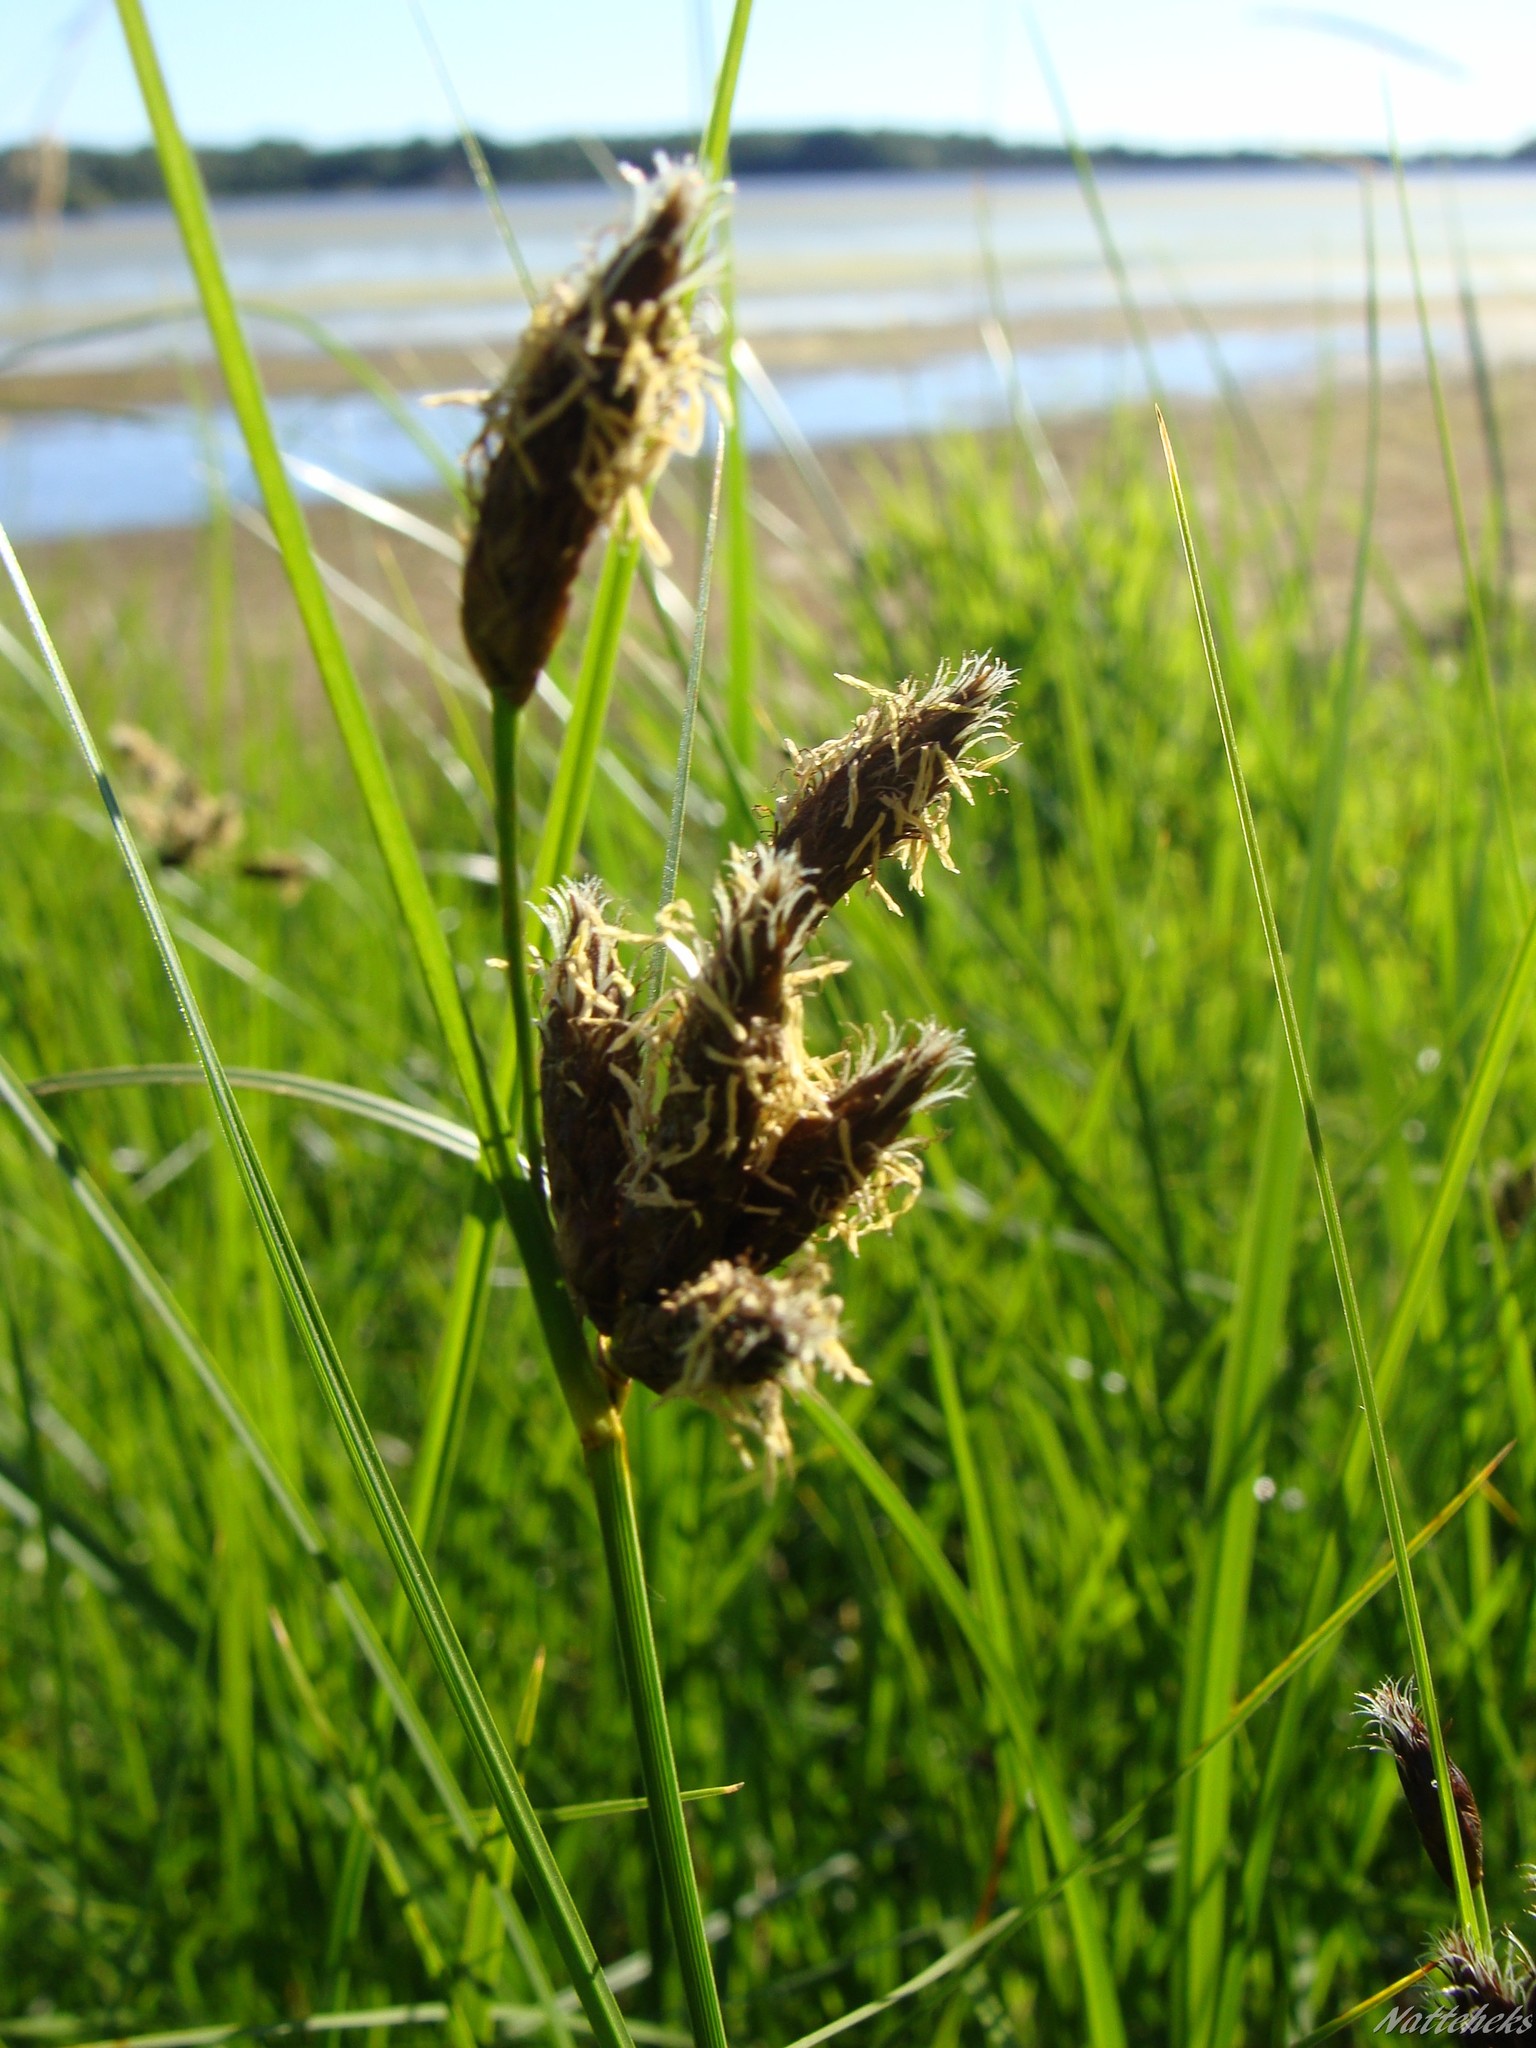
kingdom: Plantae
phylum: Tracheophyta
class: Liliopsida
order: Poales
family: Cyperaceae
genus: Bolboschoenus
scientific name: Bolboschoenus maritimus
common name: Sea club-rush
